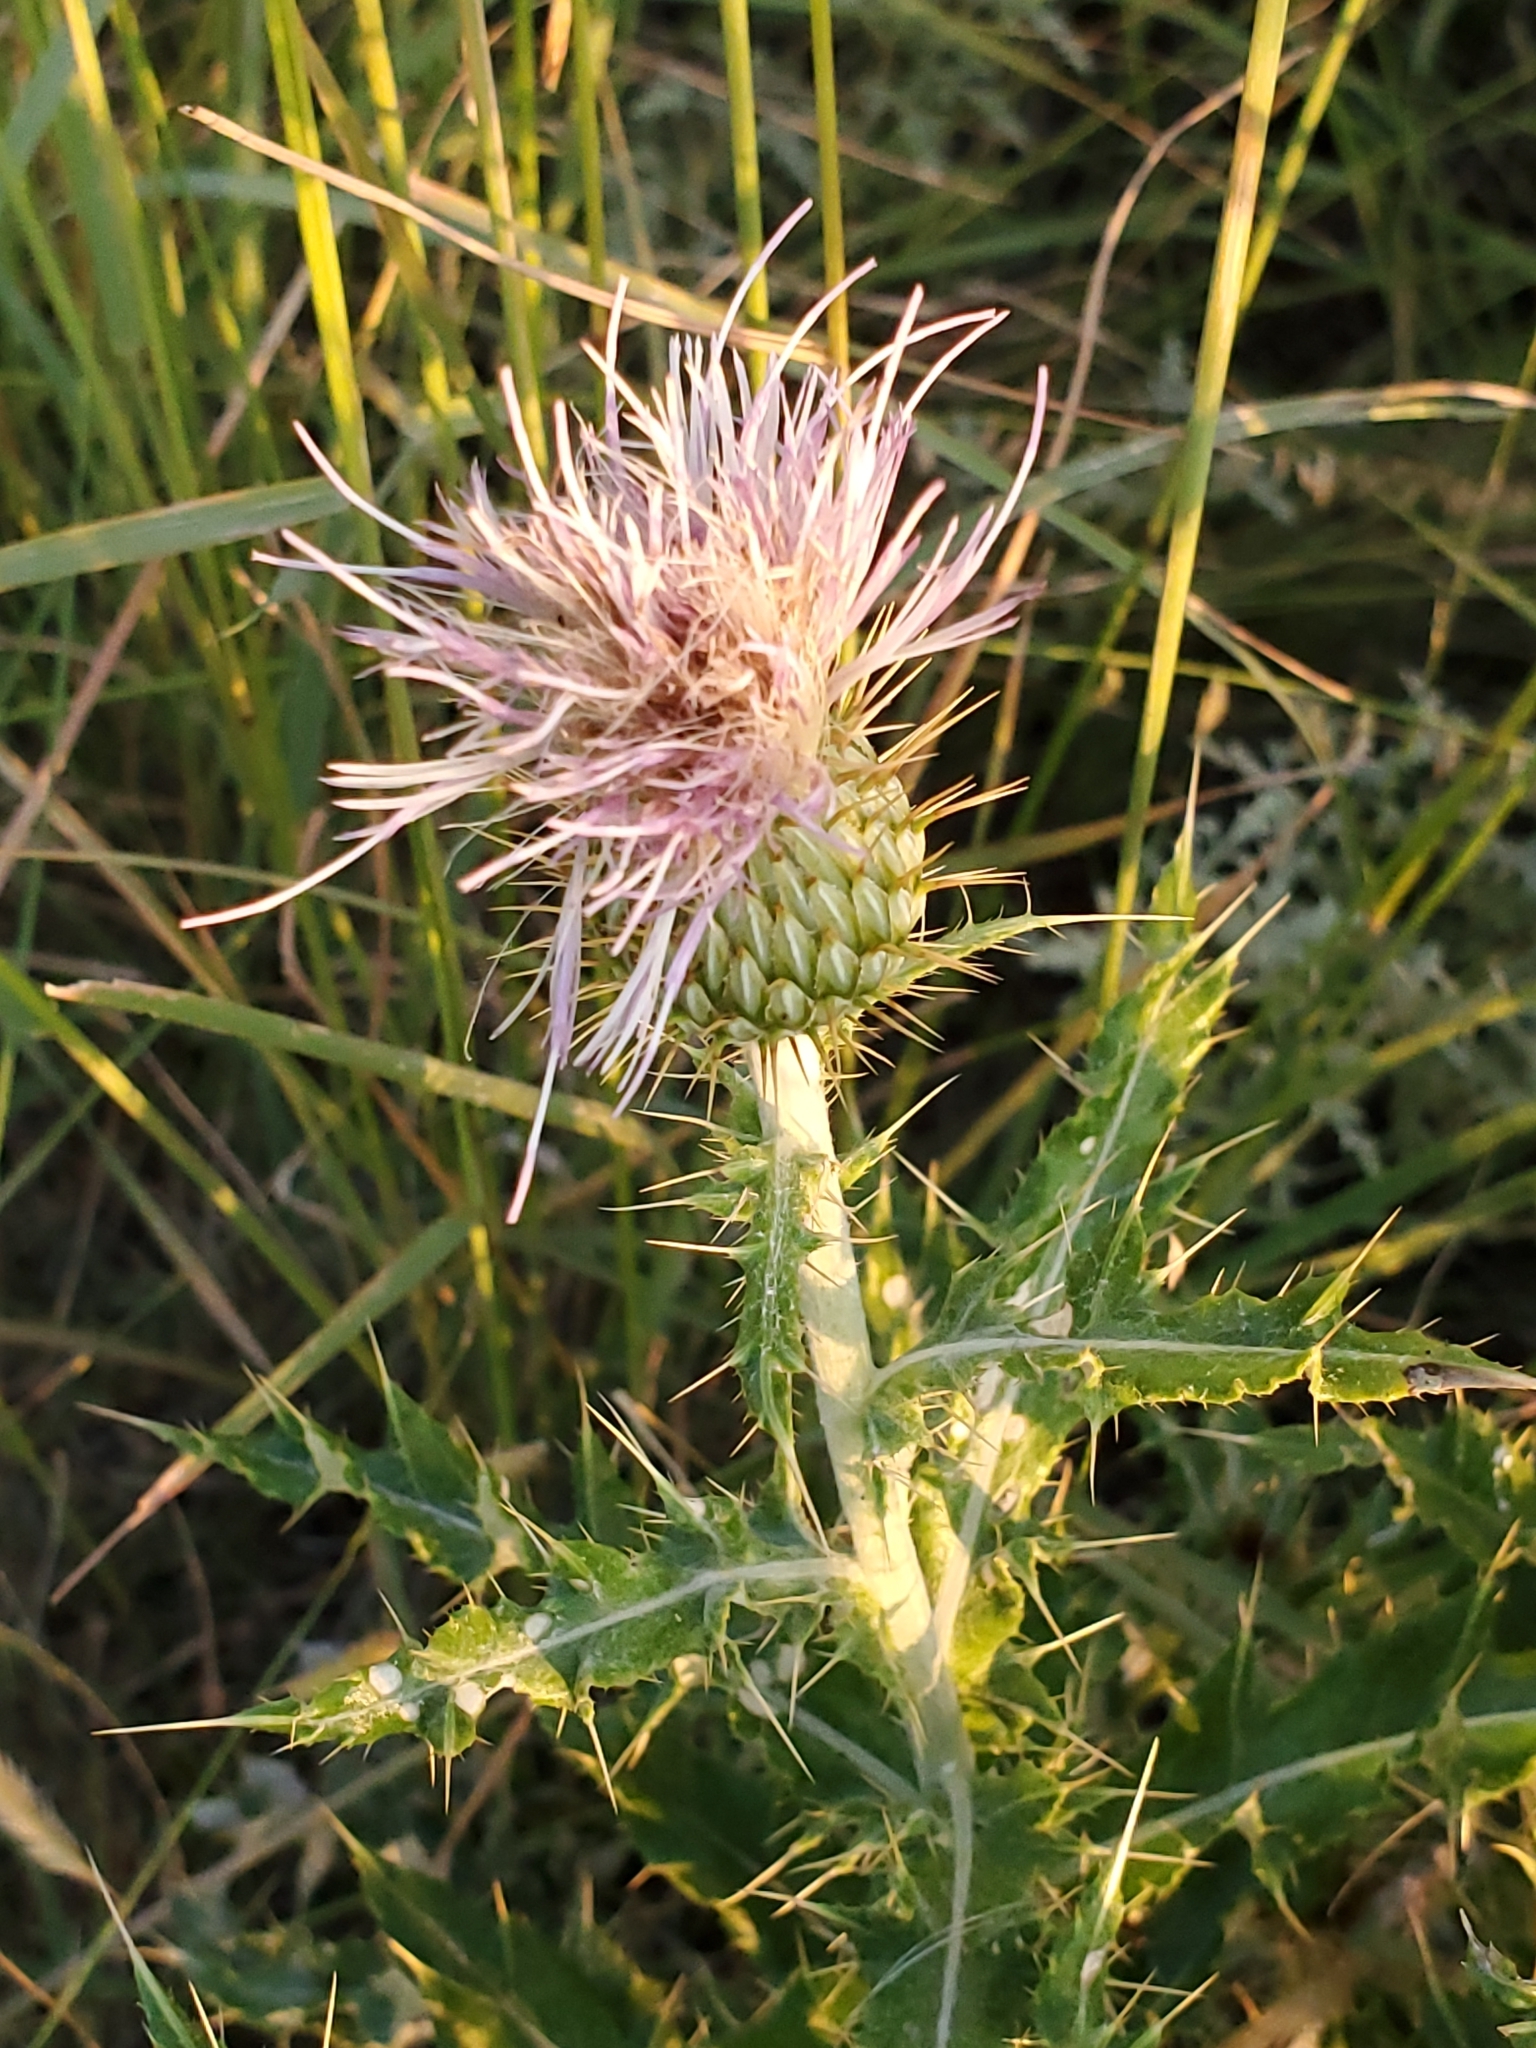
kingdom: Plantae
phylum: Tracheophyta
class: Magnoliopsida
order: Asterales
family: Asteraceae
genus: Cirsium
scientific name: Cirsium ochrocentrum
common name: Yellow-spine thistle
